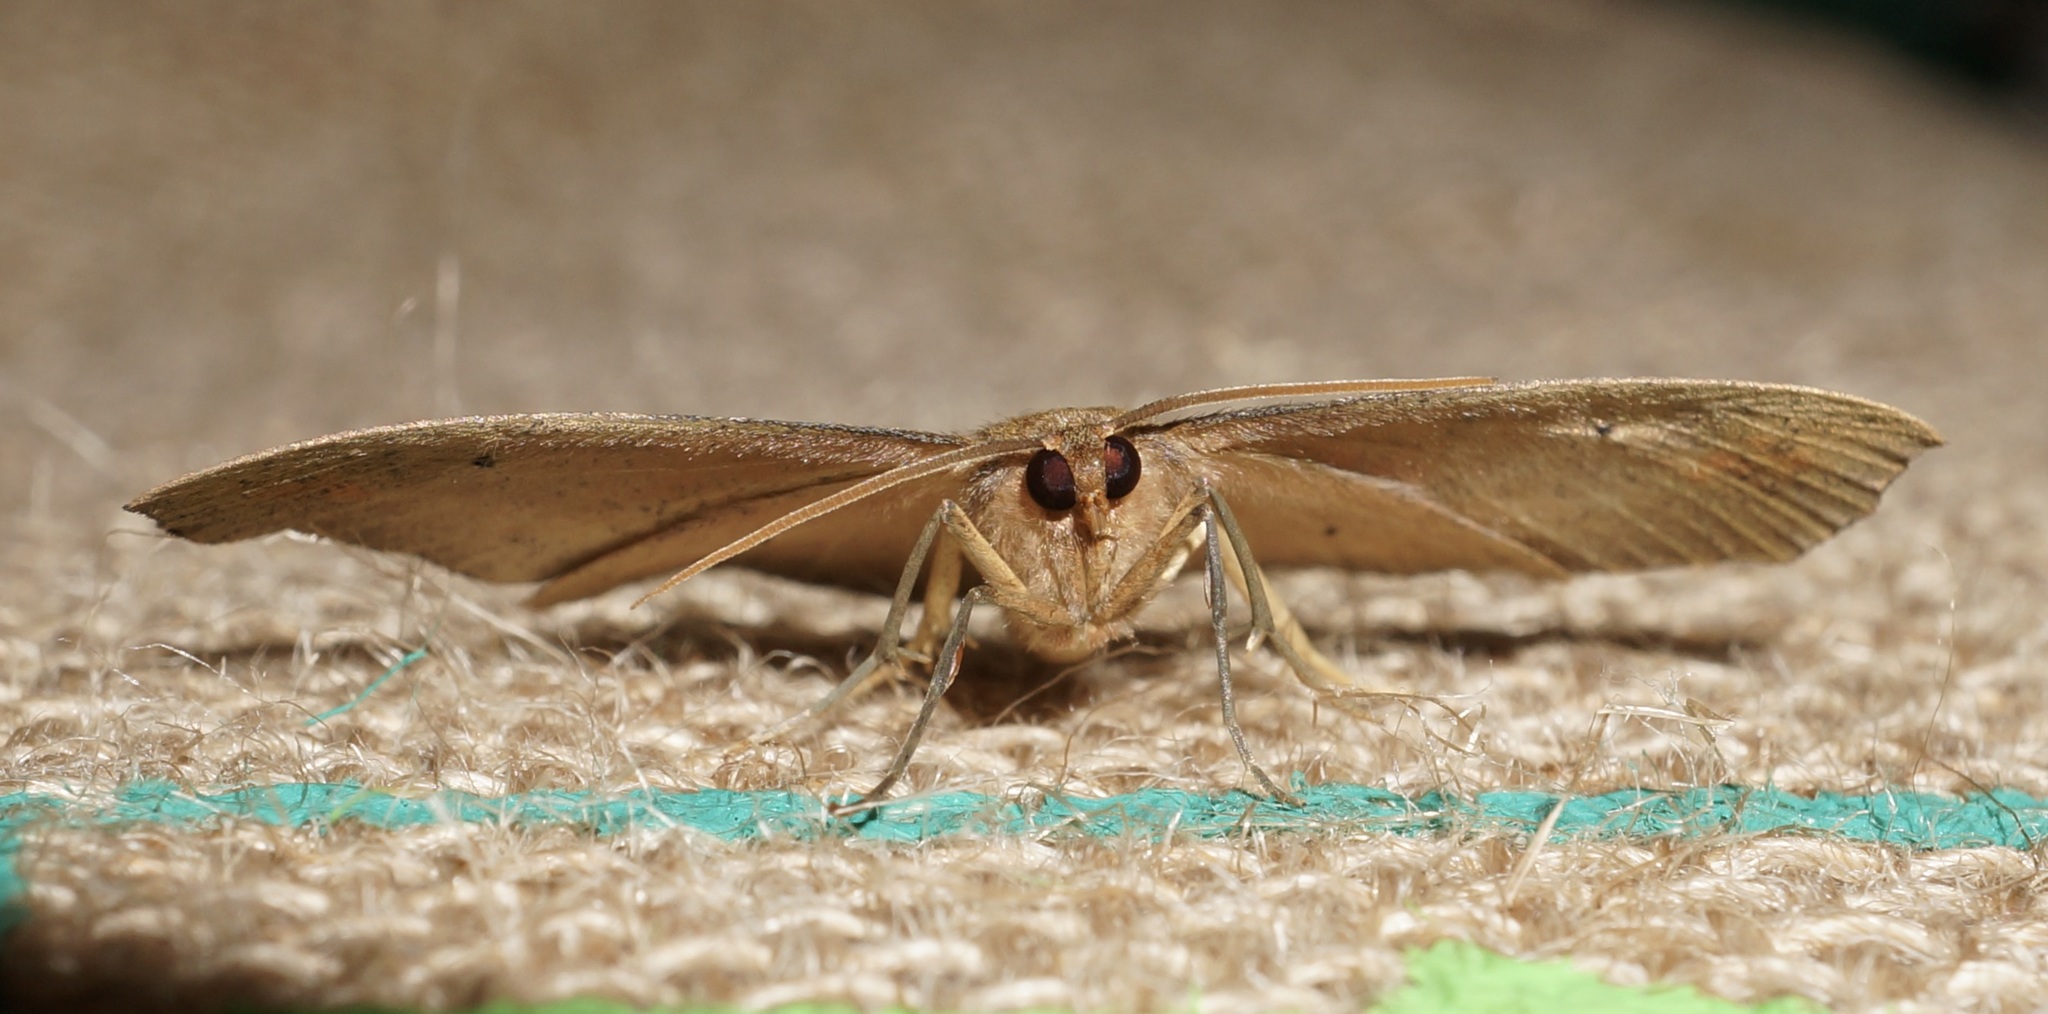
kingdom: Animalia
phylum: Arthropoda
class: Insecta
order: Lepidoptera
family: Geometridae
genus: Xyridacma
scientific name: Xyridacma ustaria
